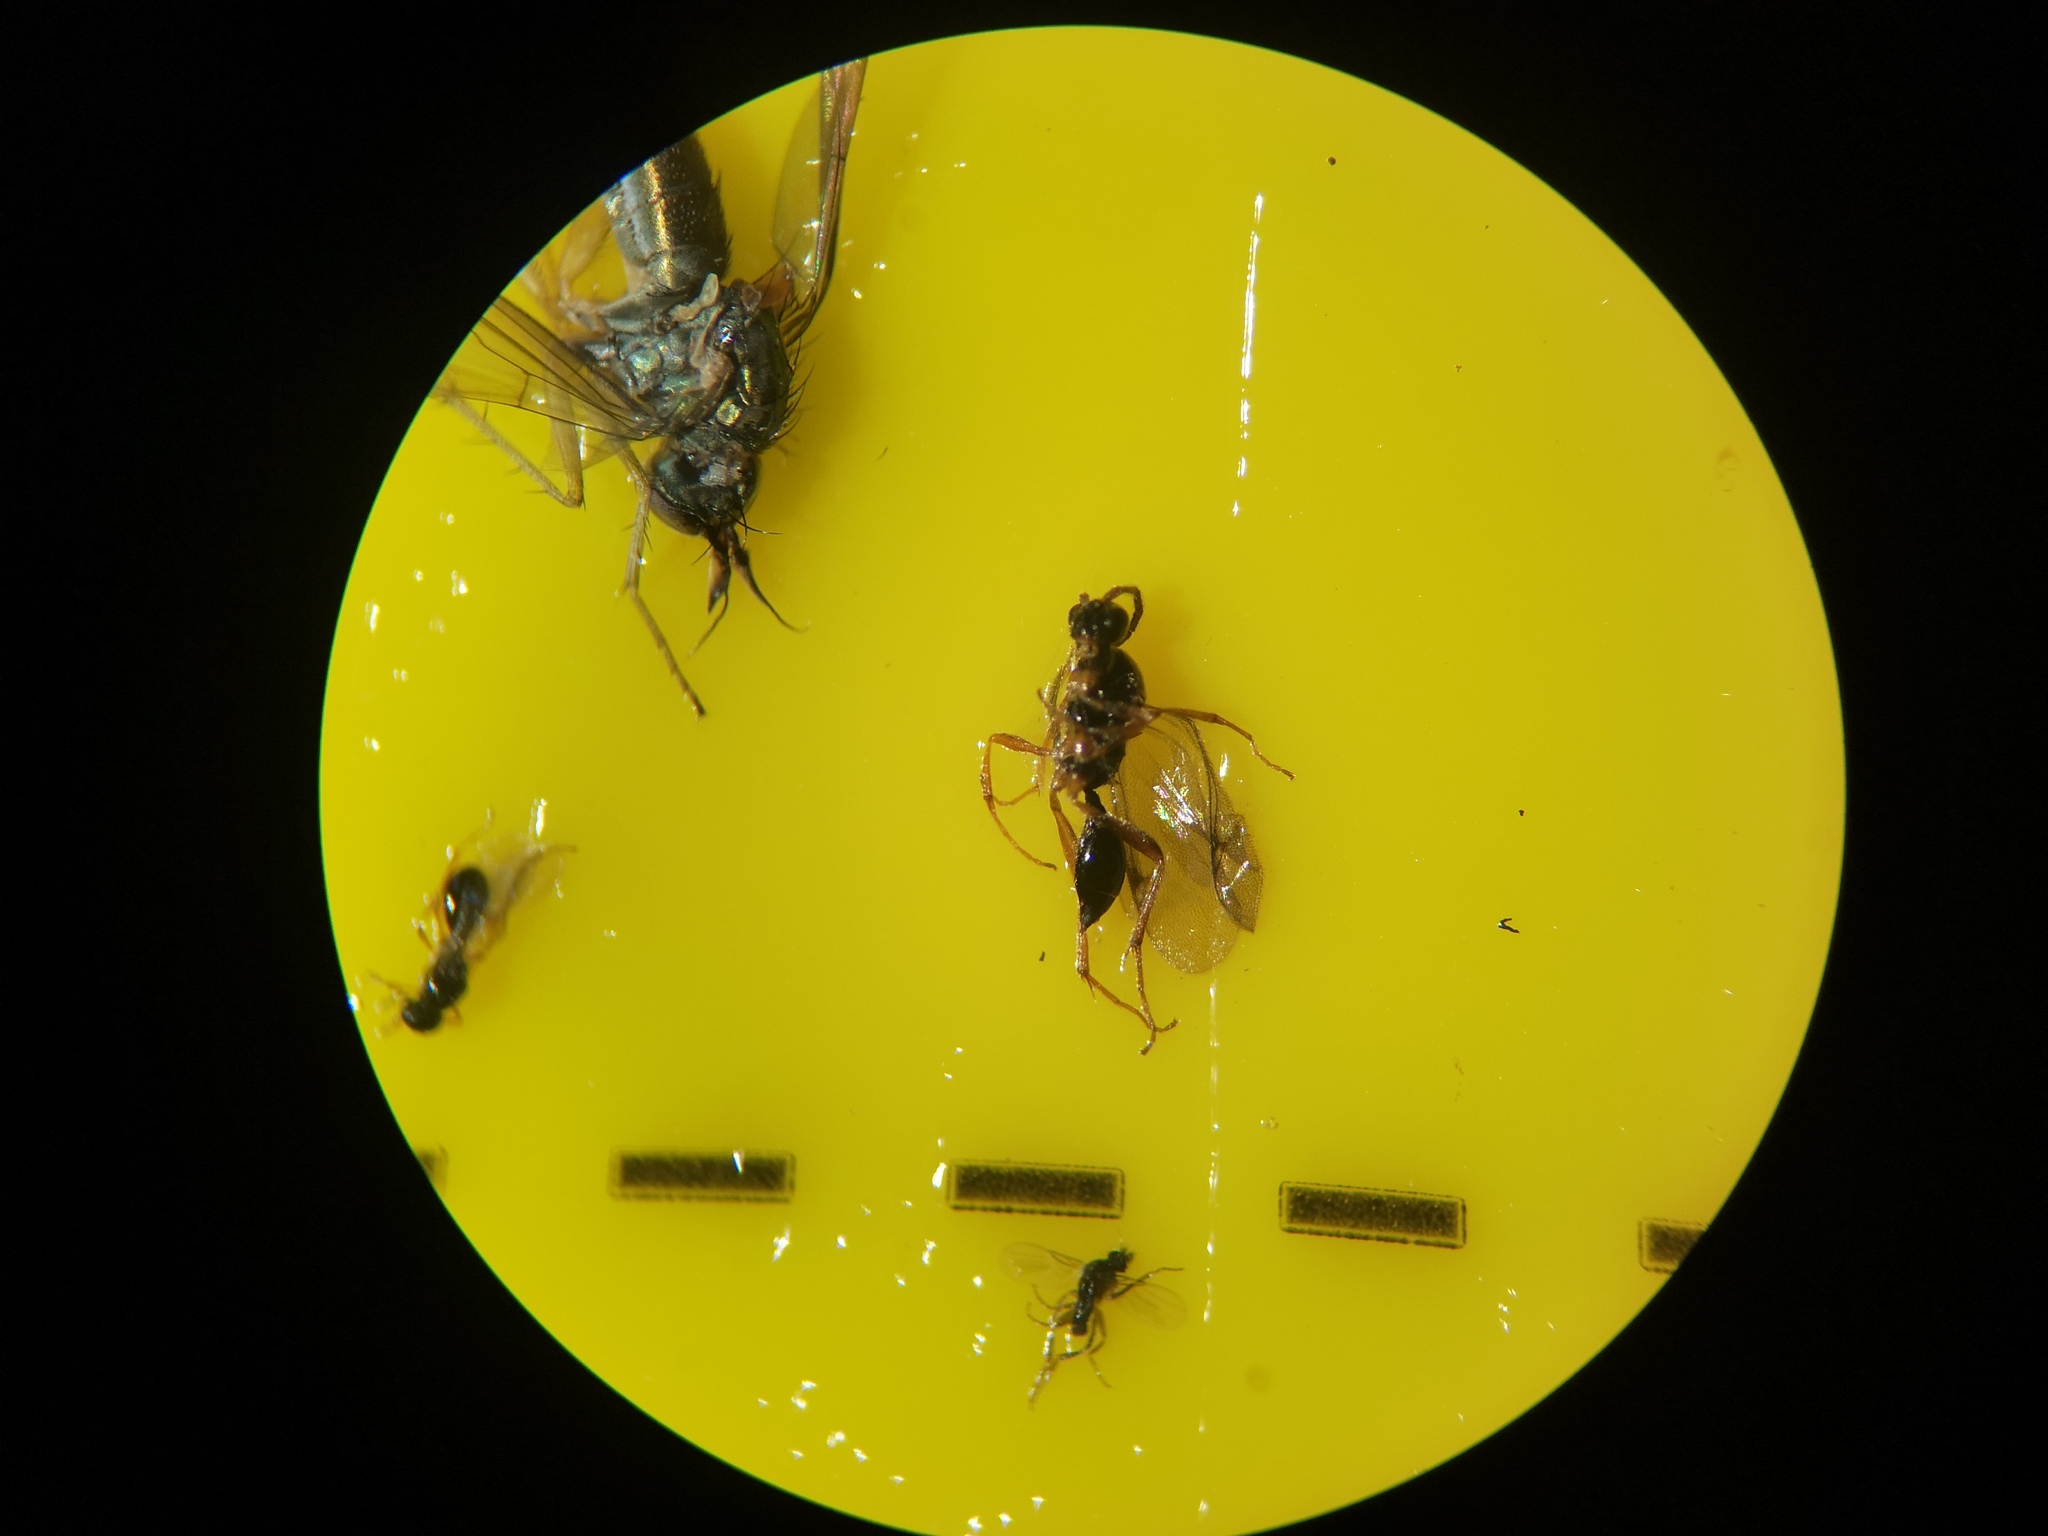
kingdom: Animalia
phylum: Arthropoda
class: Insecta
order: Hymenoptera
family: Proctotrupidae
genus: Phaneroserphus
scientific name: Phaneroserphus calcar
